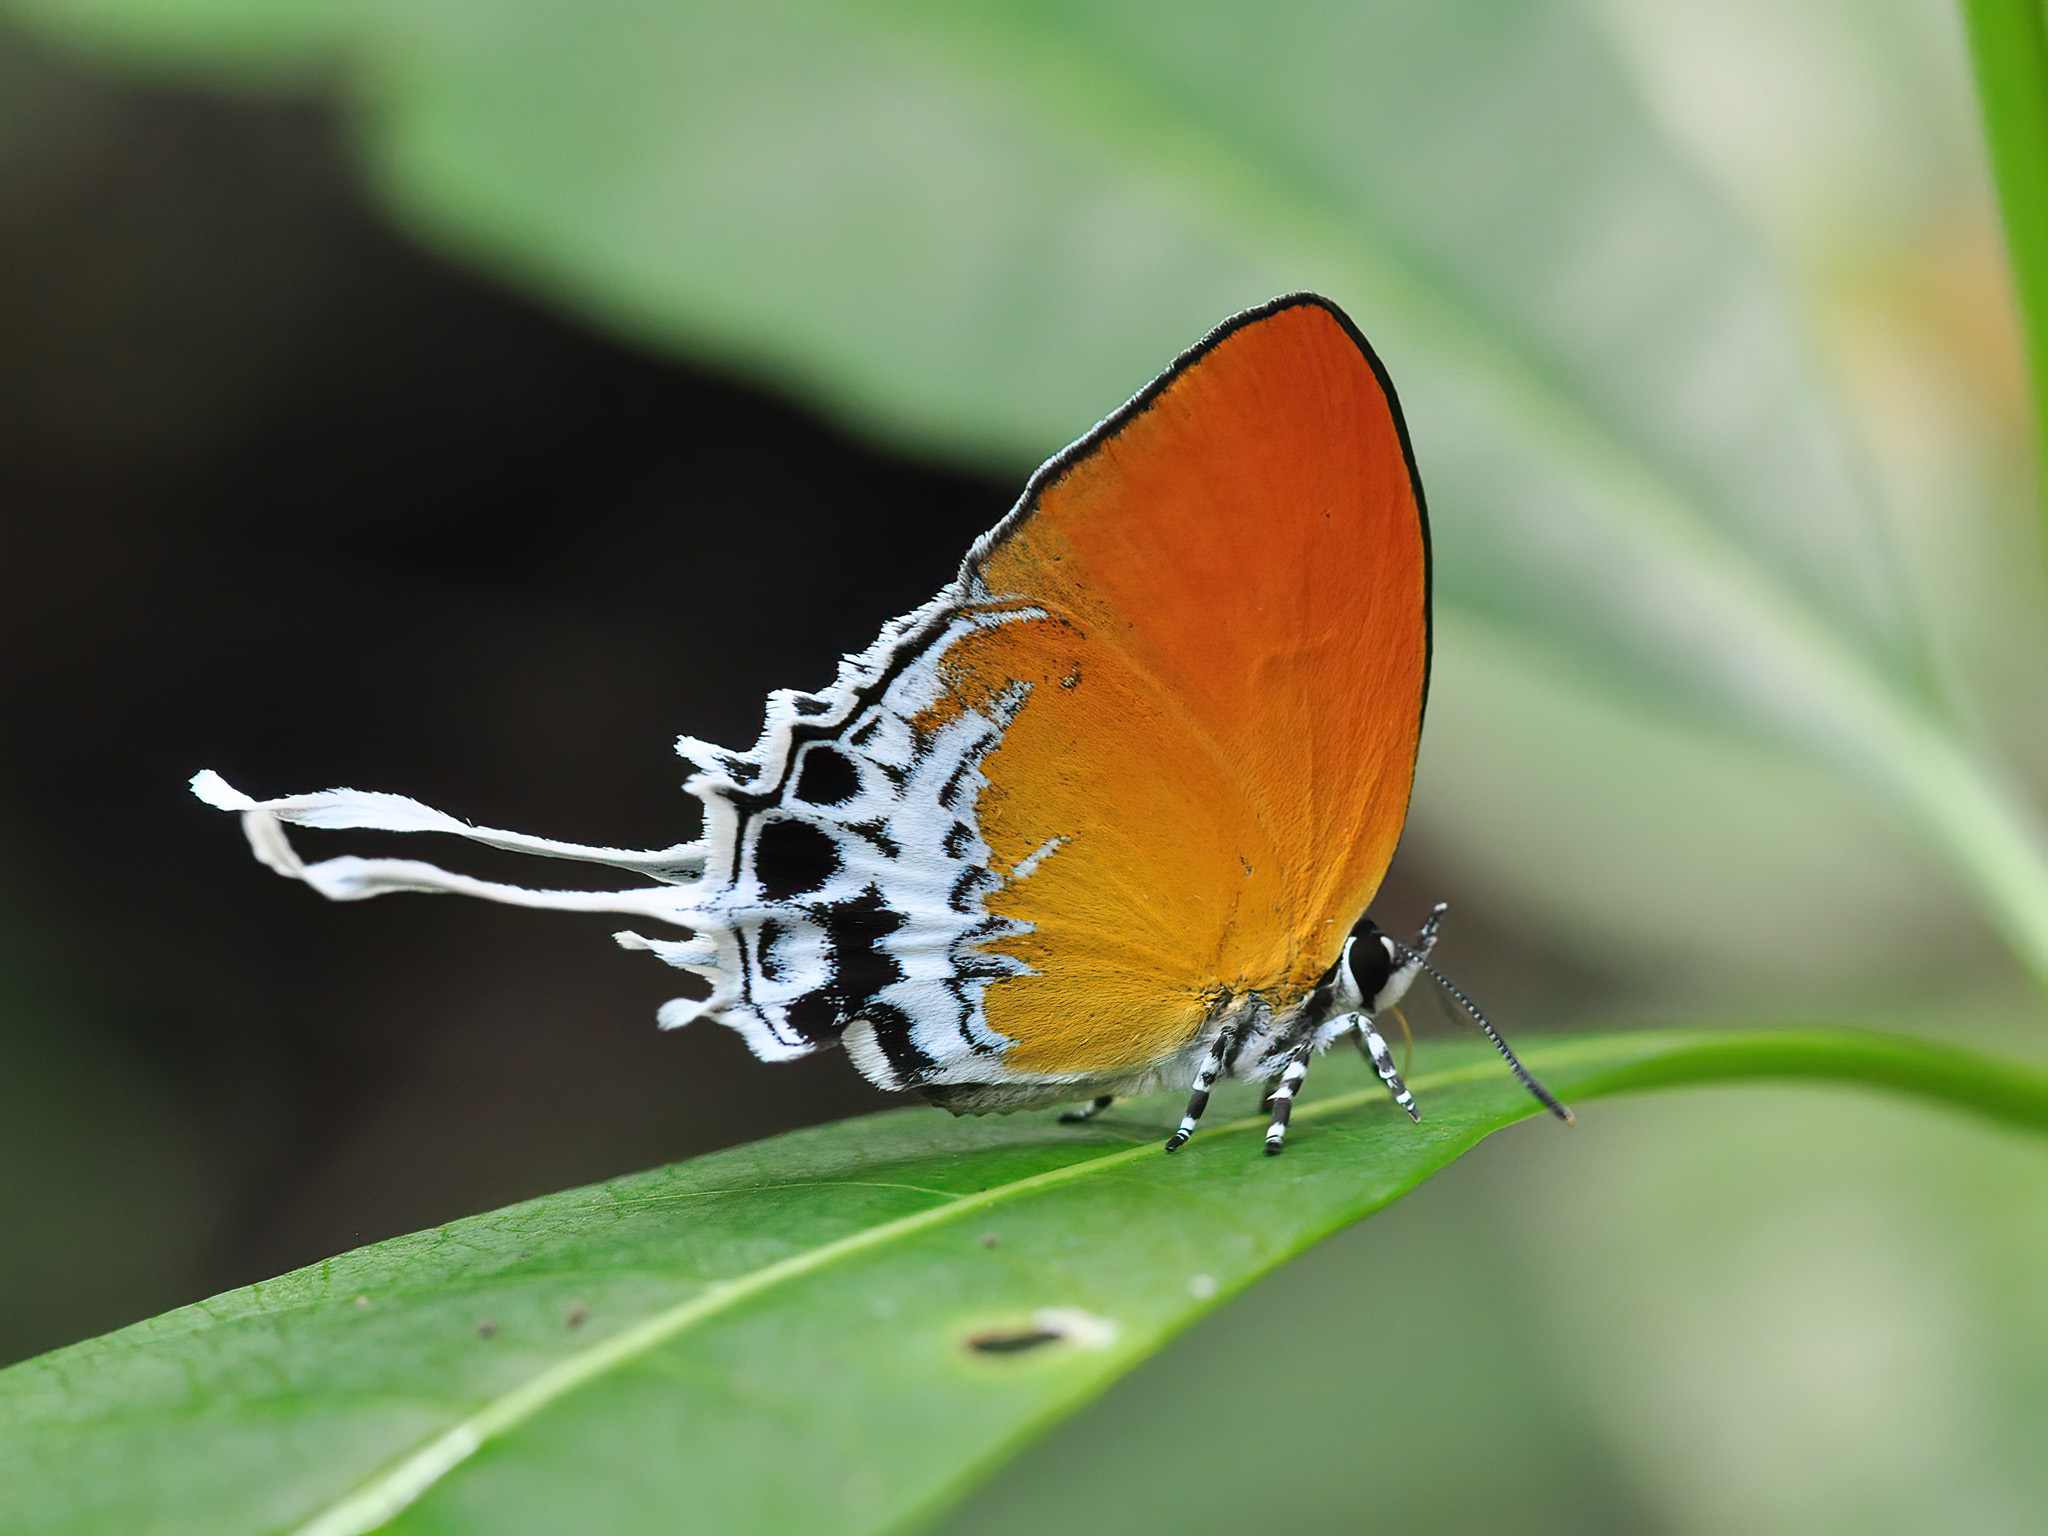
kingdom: Animalia
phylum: Arthropoda
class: Insecta
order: Lepidoptera
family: Lycaenidae
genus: Eooxylides
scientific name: Eooxylides tharis
